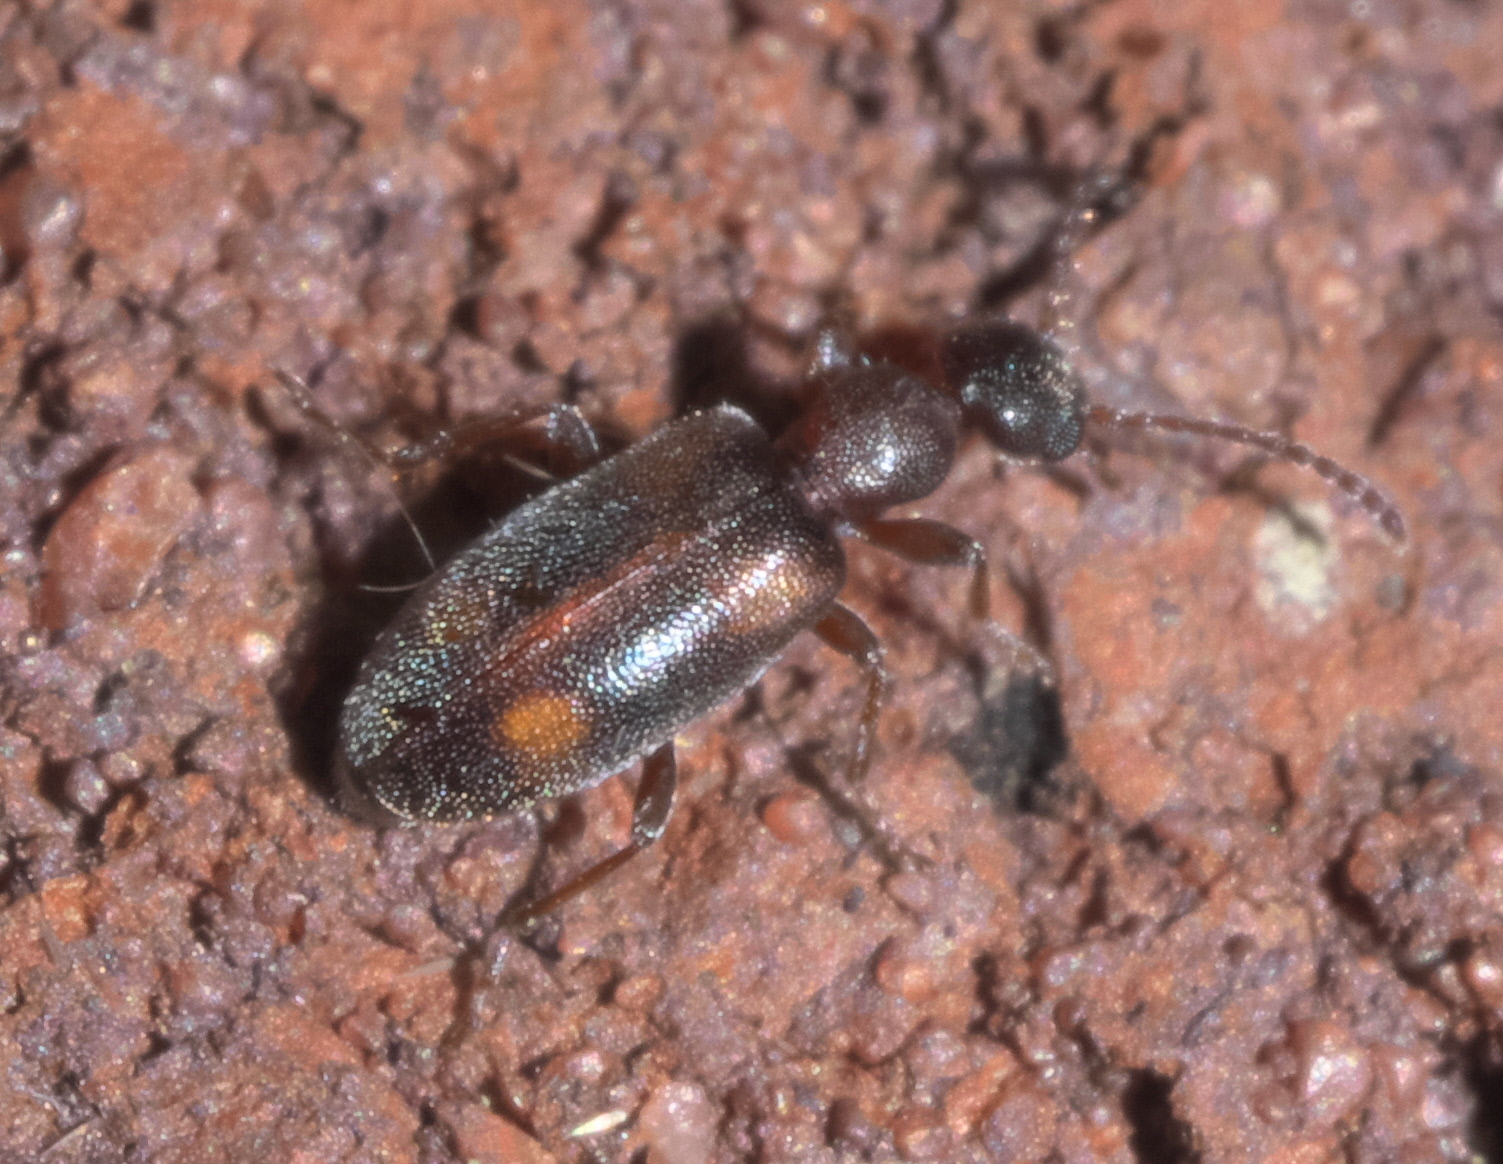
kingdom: Animalia
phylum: Arthropoda
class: Insecta
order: Coleoptera
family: Anthicidae
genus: Anthicus
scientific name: Anthicus cervinus
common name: Cloudy flower beetle
